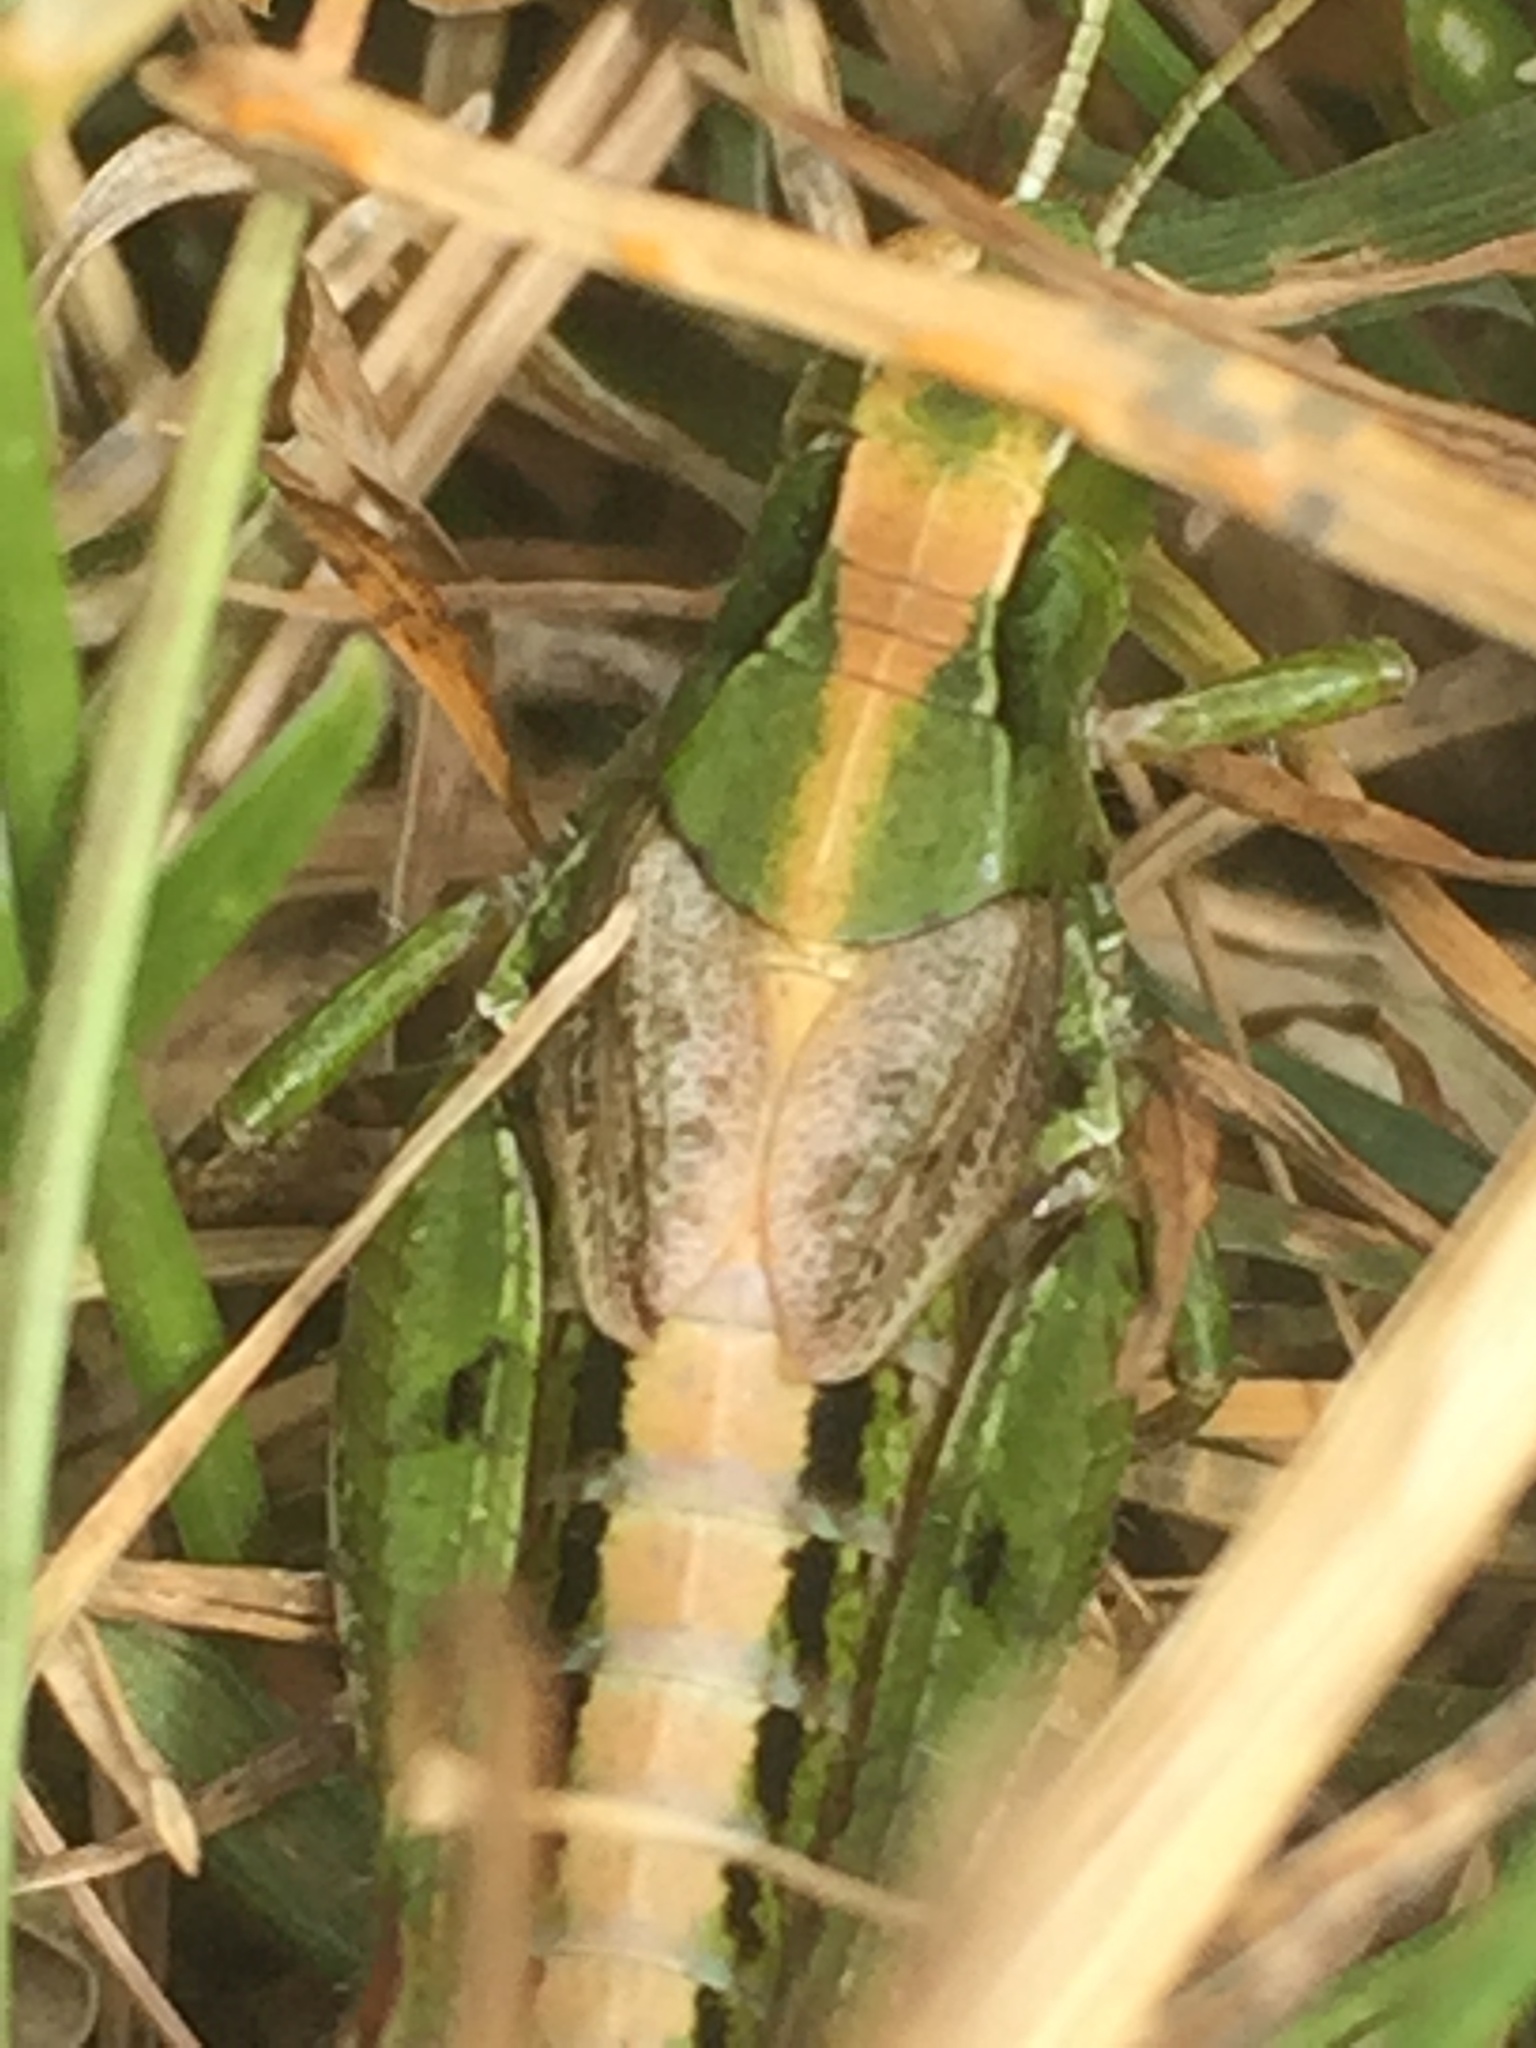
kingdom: Animalia
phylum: Arthropoda
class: Insecta
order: Orthoptera
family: Acrididae
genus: Phaulacridium
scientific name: Phaulacridium marginale
